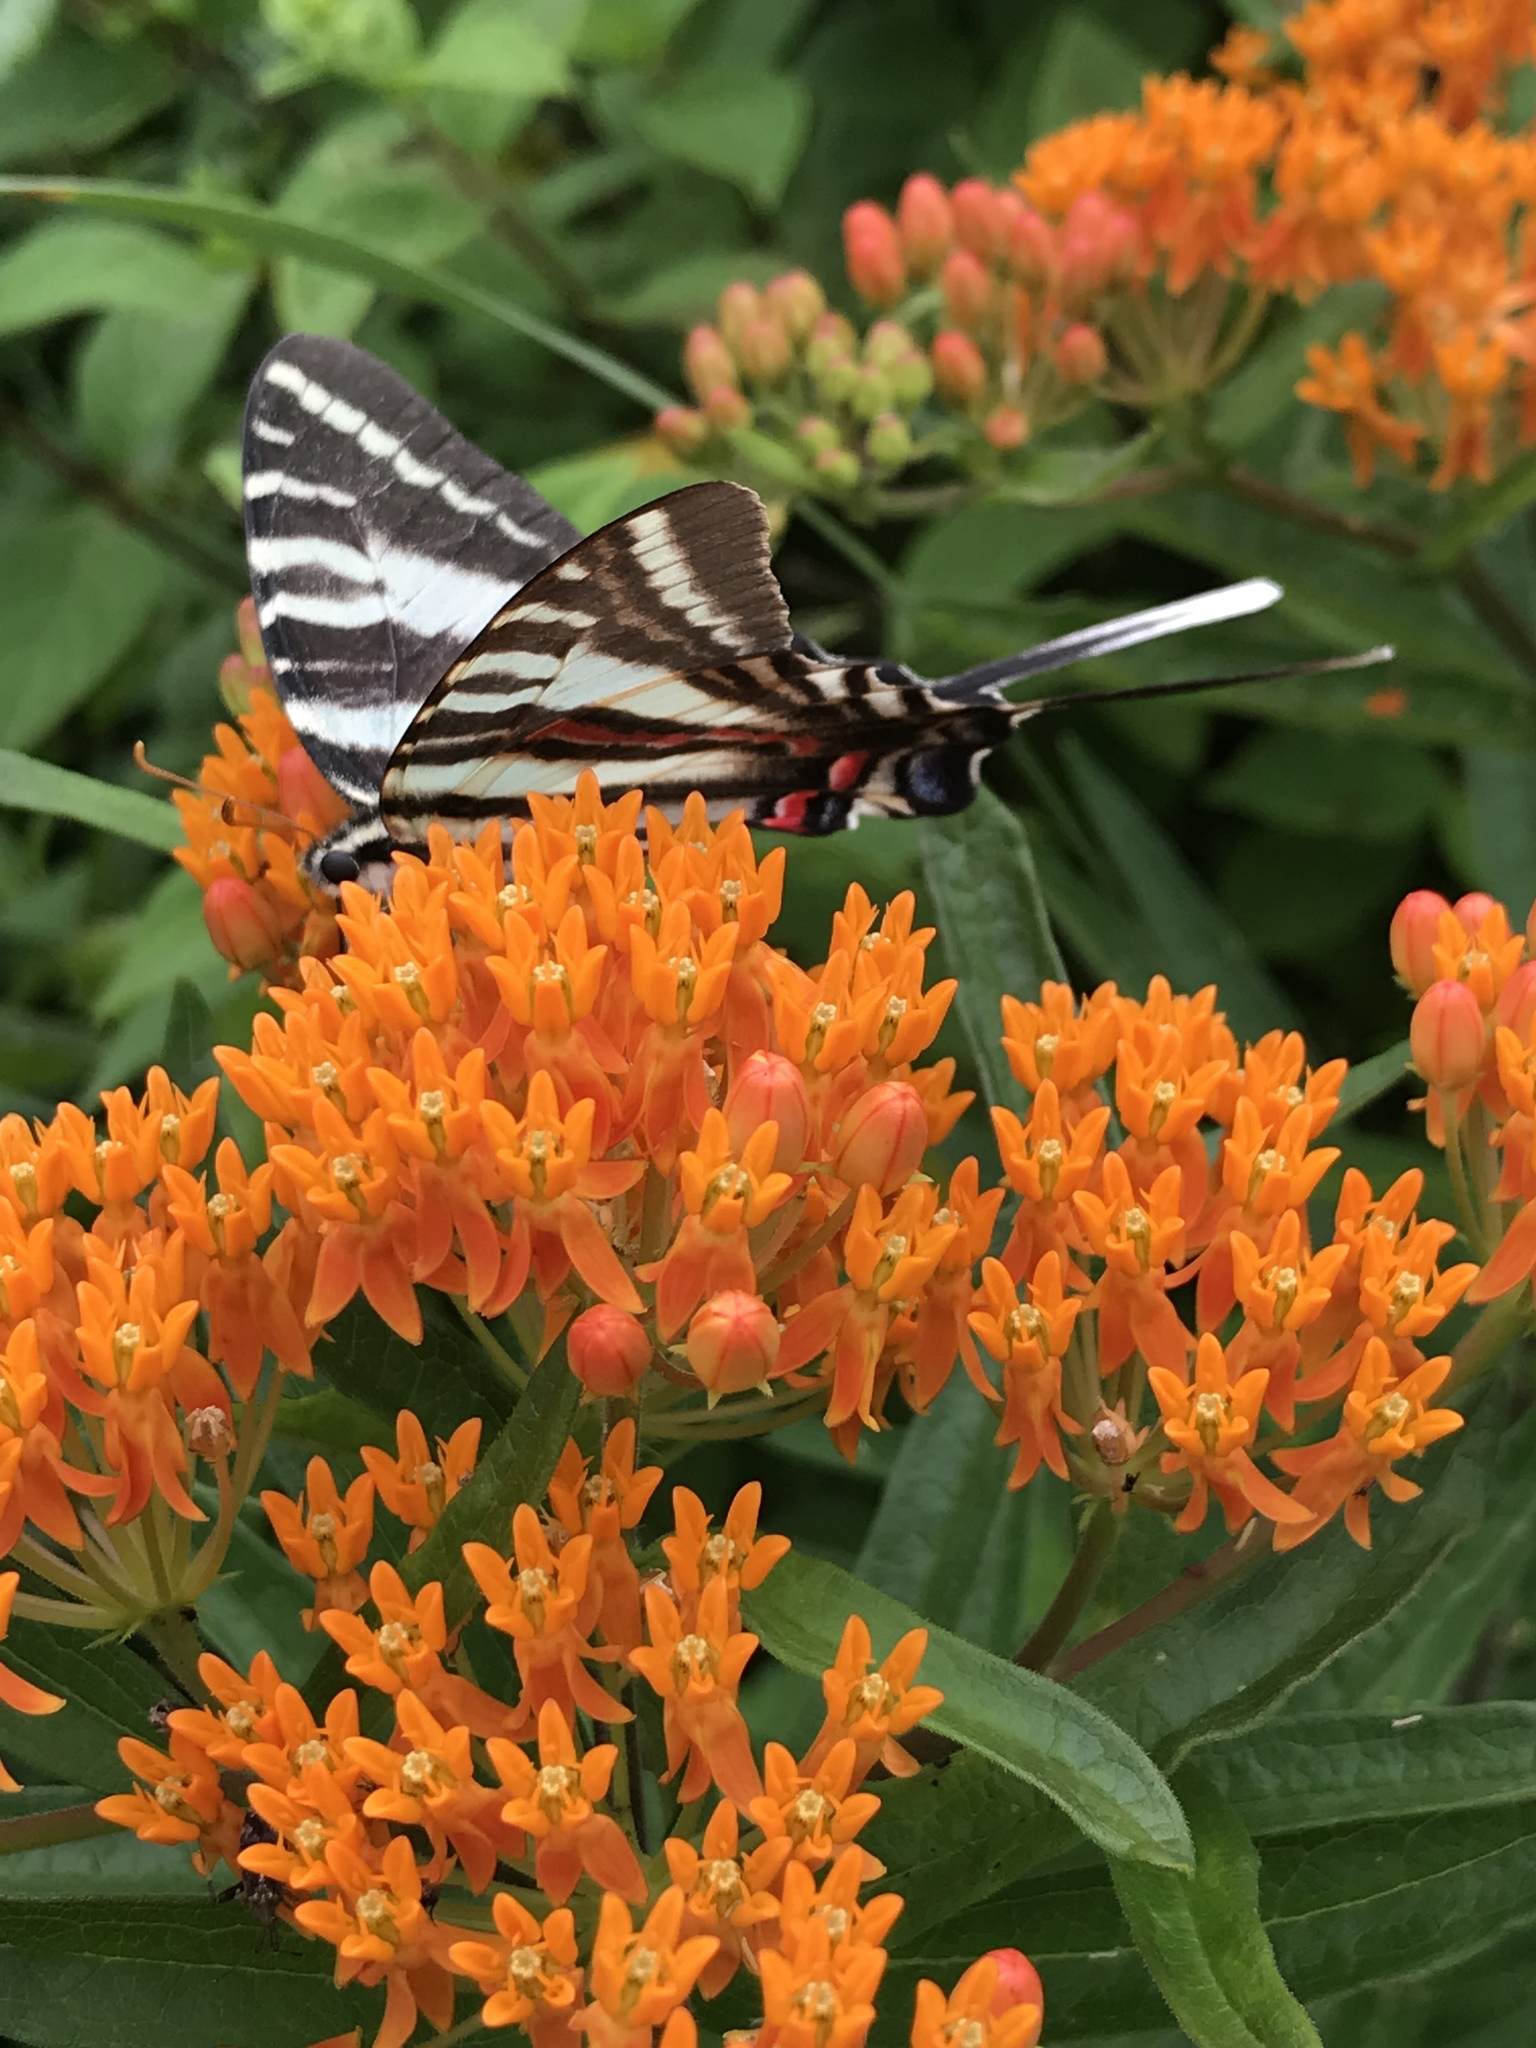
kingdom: Animalia
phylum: Arthropoda
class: Insecta
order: Lepidoptera
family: Papilionidae
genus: Protographium
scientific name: Protographium marcellus
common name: Zebra swallowtail
